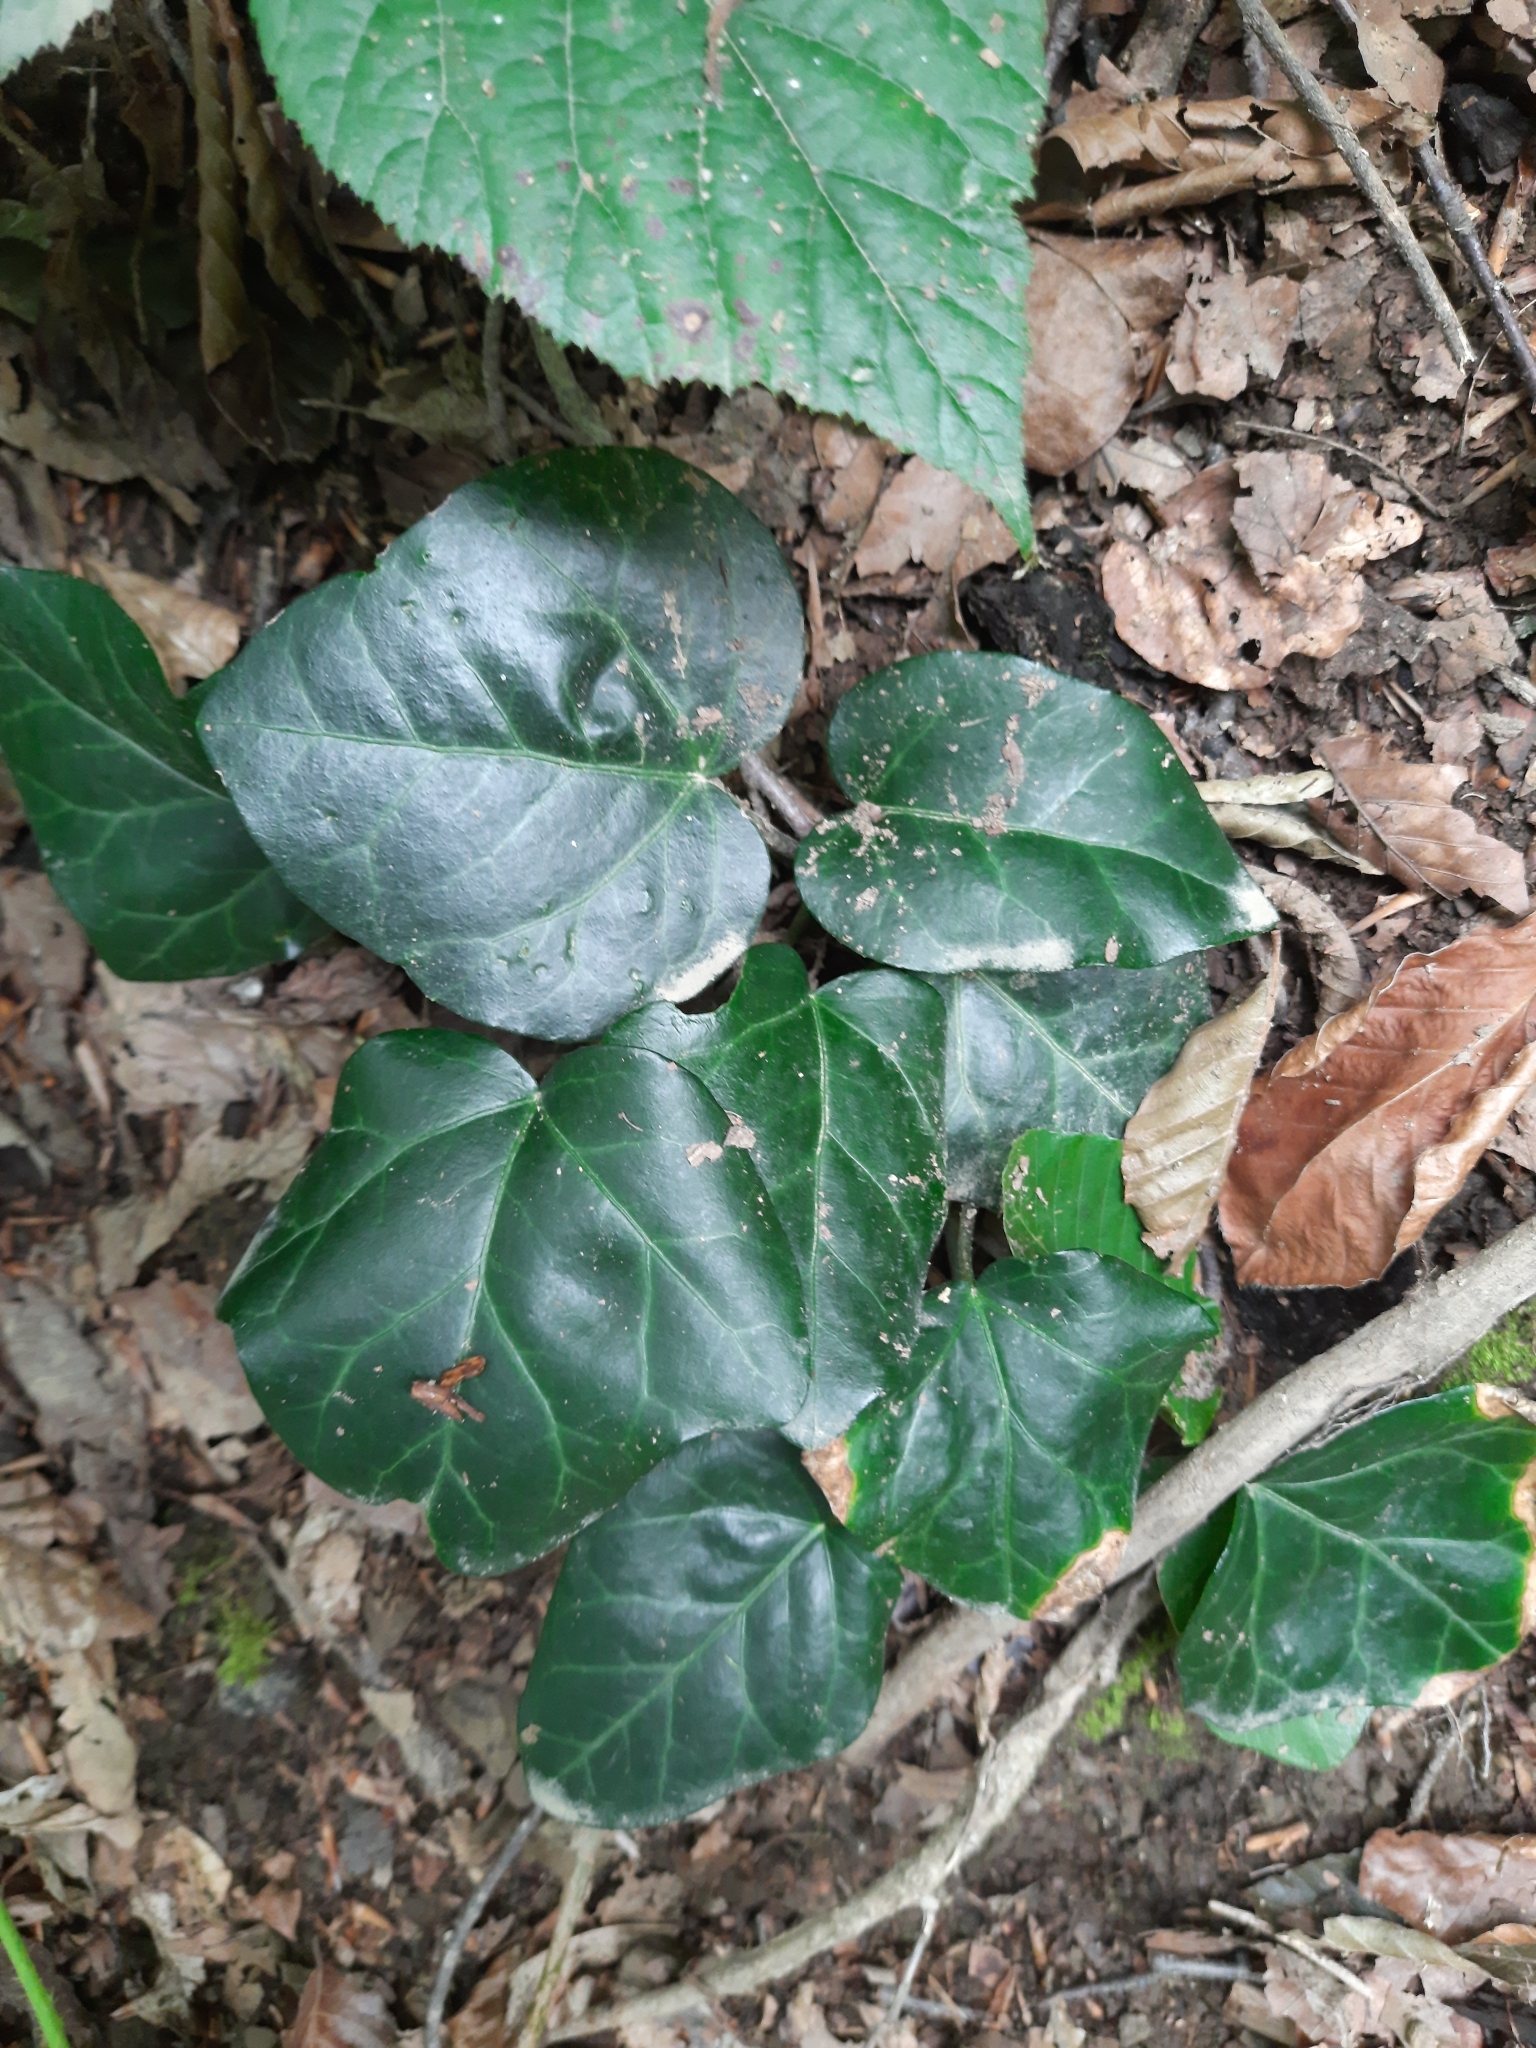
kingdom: Plantae
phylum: Tracheophyta
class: Magnoliopsida
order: Apiales
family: Araliaceae
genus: Hedera
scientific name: Hedera colchica
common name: Persian ivy
